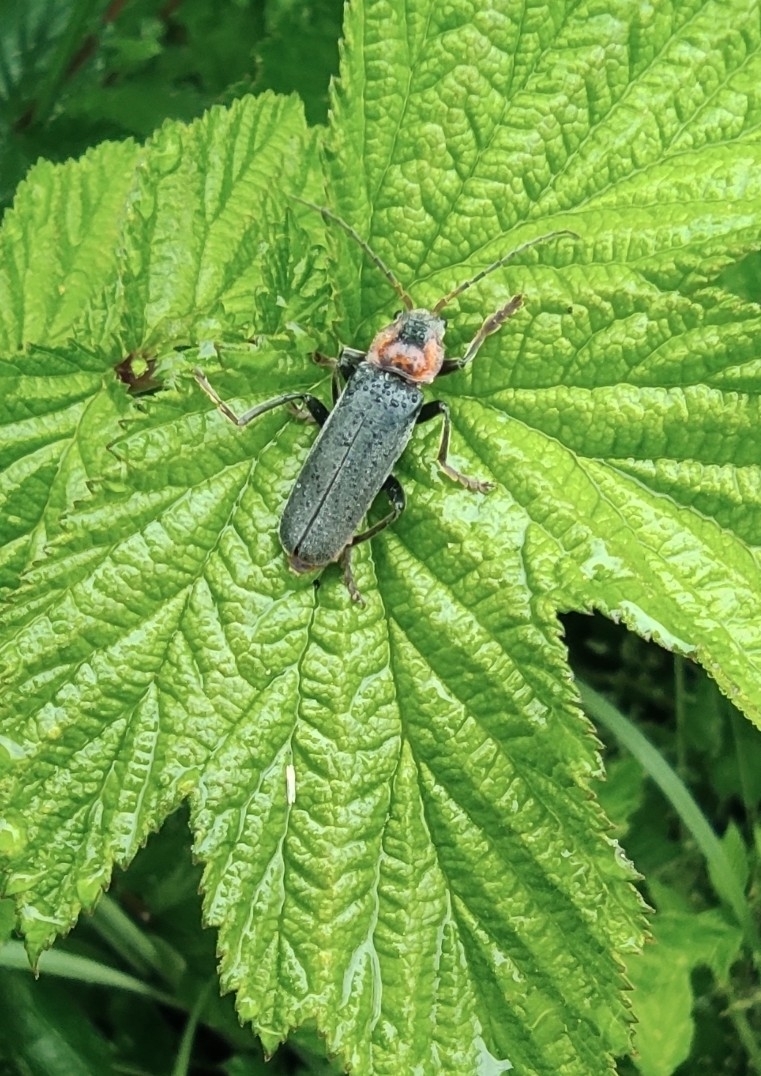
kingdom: Animalia
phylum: Arthropoda
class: Insecta
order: Coleoptera
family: Cantharidae
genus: Cantharis
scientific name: Cantharis fusca
